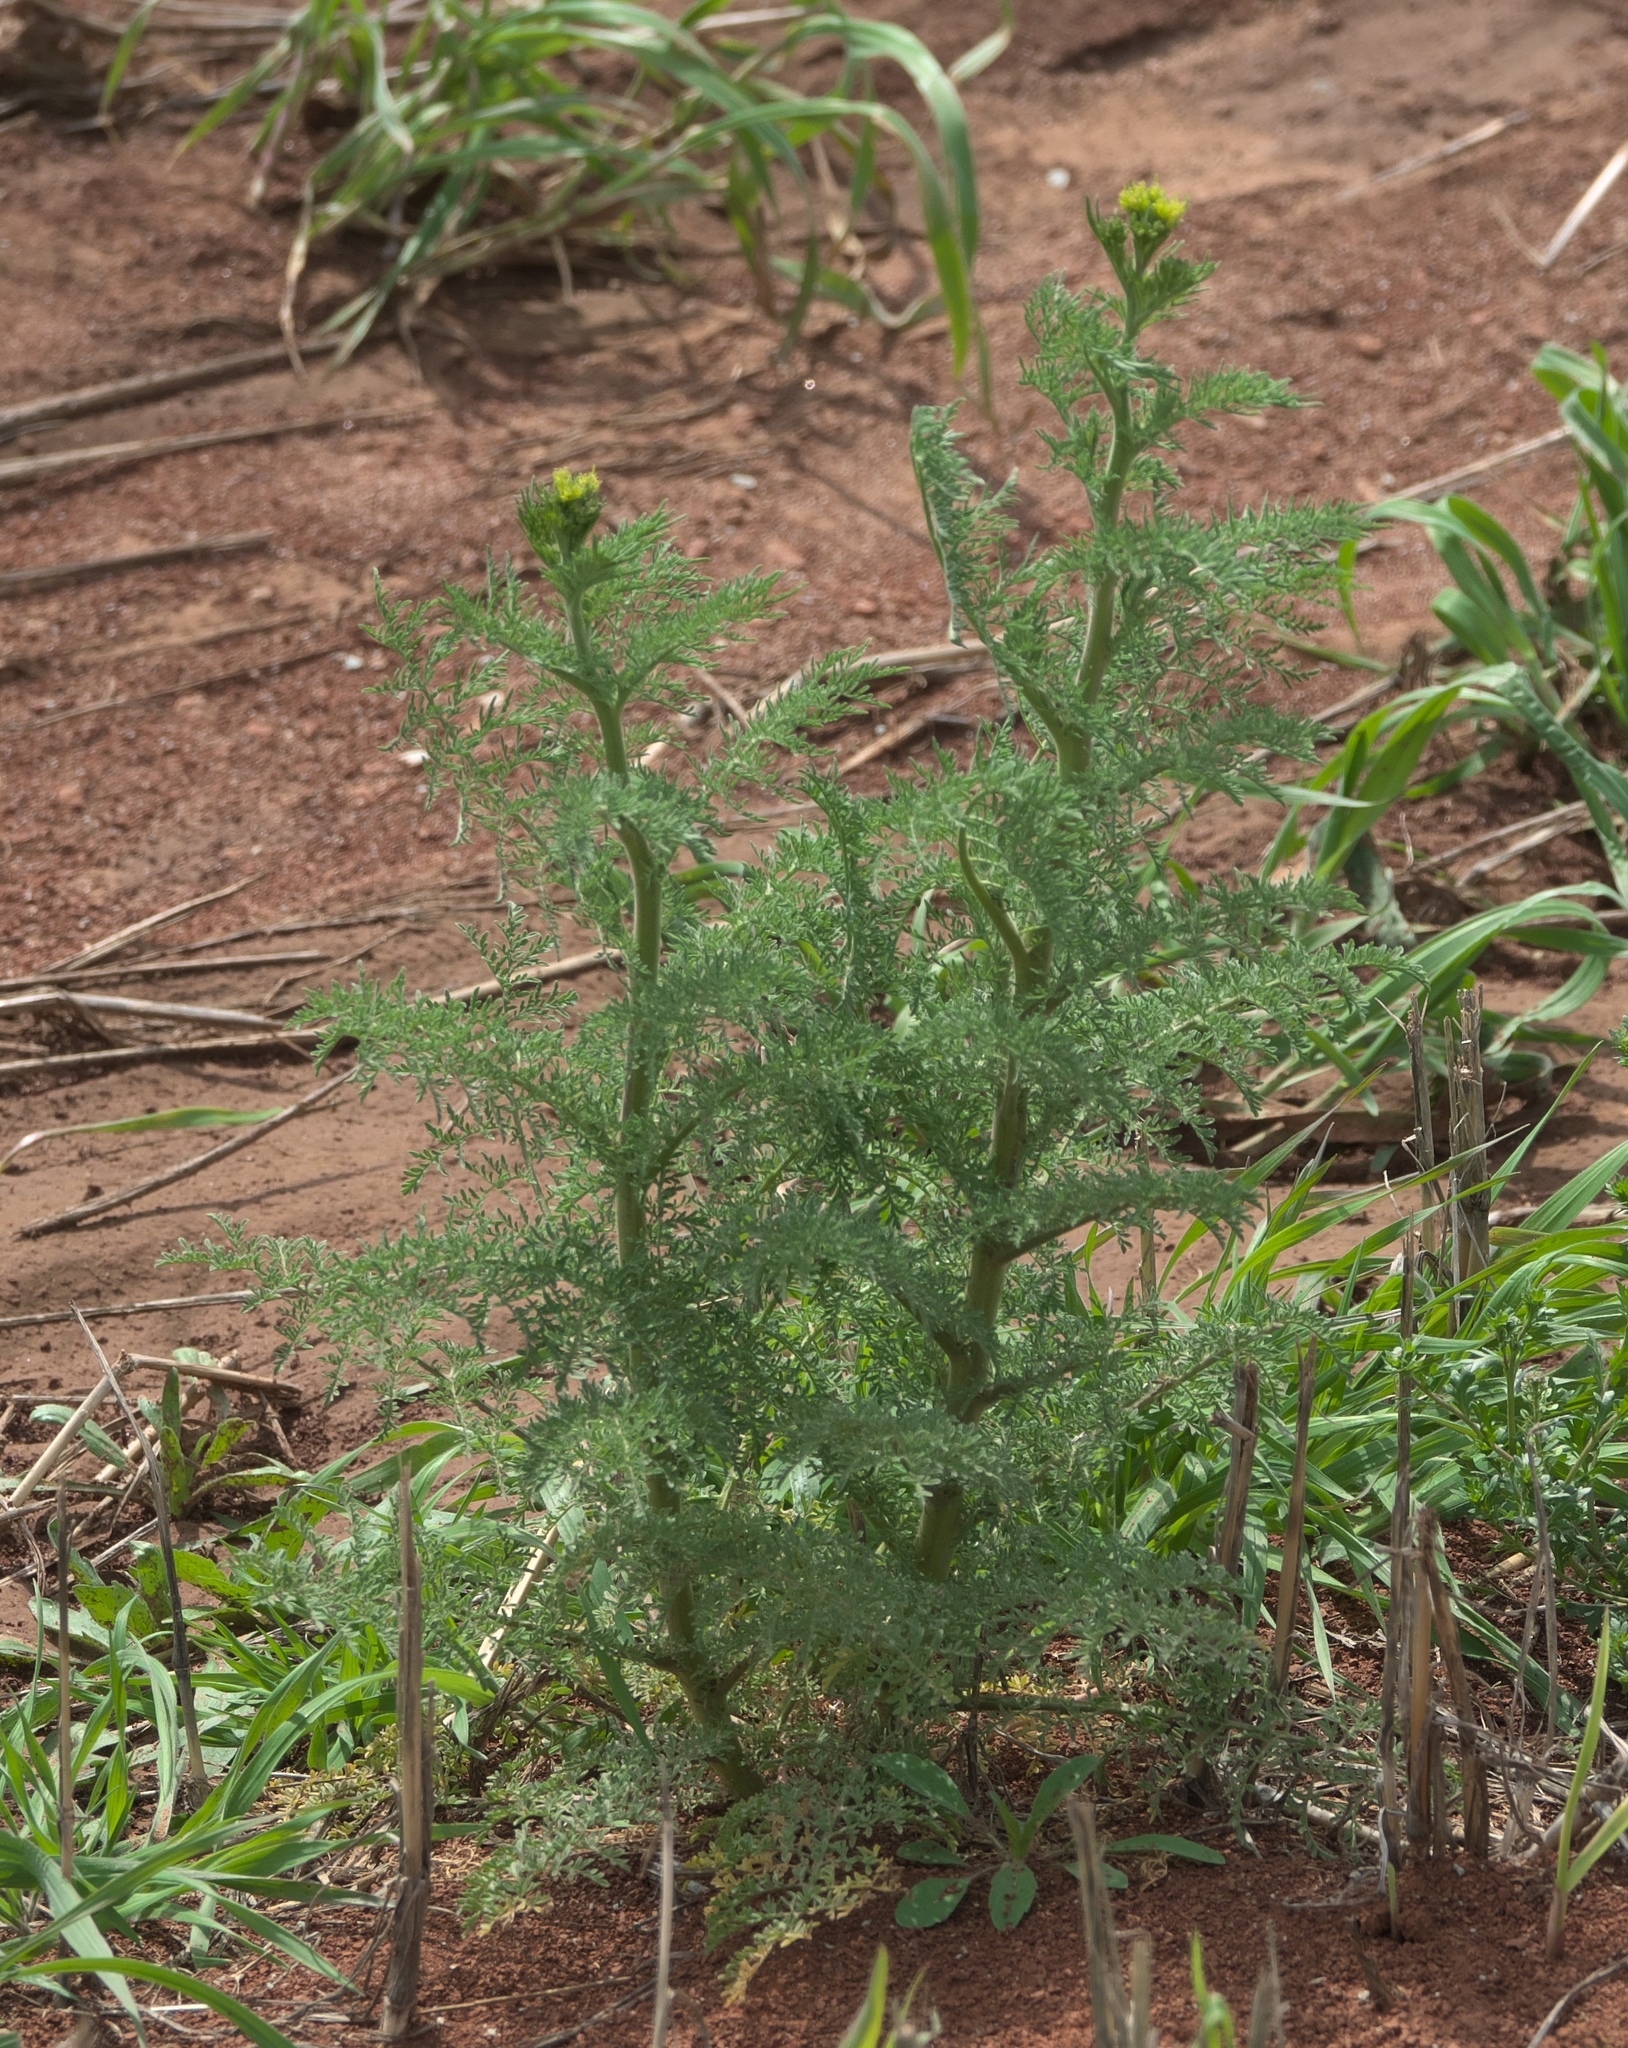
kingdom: Plantae
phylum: Tracheophyta
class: Magnoliopsida
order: Brassicales
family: Brassicaceae
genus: Descurainia
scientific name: Descurainia sophia
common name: Flixweed
